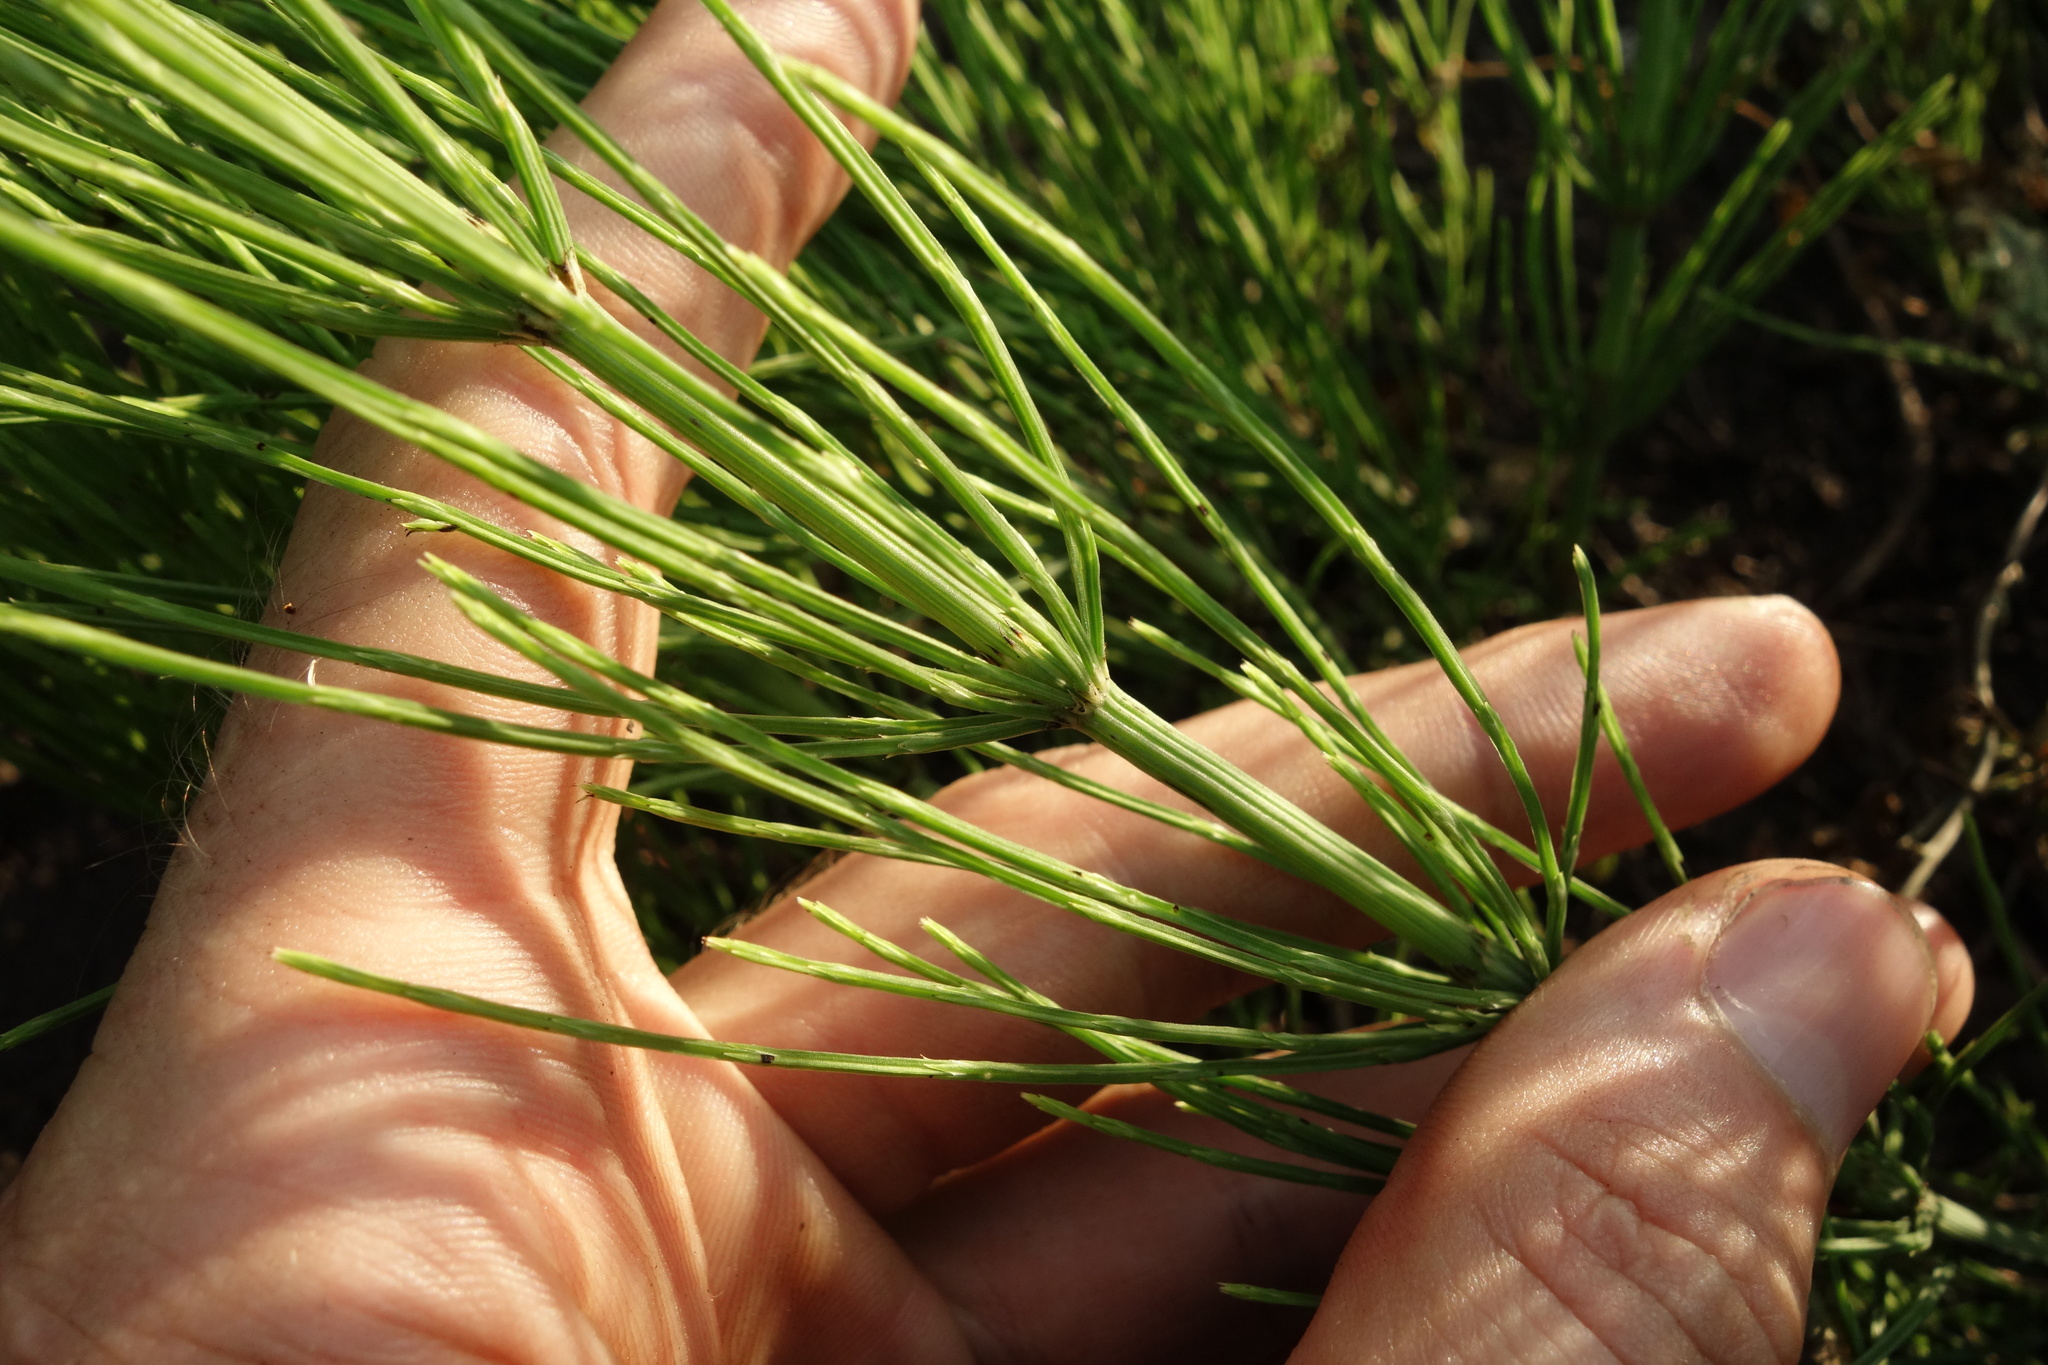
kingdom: Plantae
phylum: Tracheophyta
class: Polypodiopsida
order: Equisetales
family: Equisetaceae
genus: Equisetum
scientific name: Equisetum arvense
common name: Field horsetail
